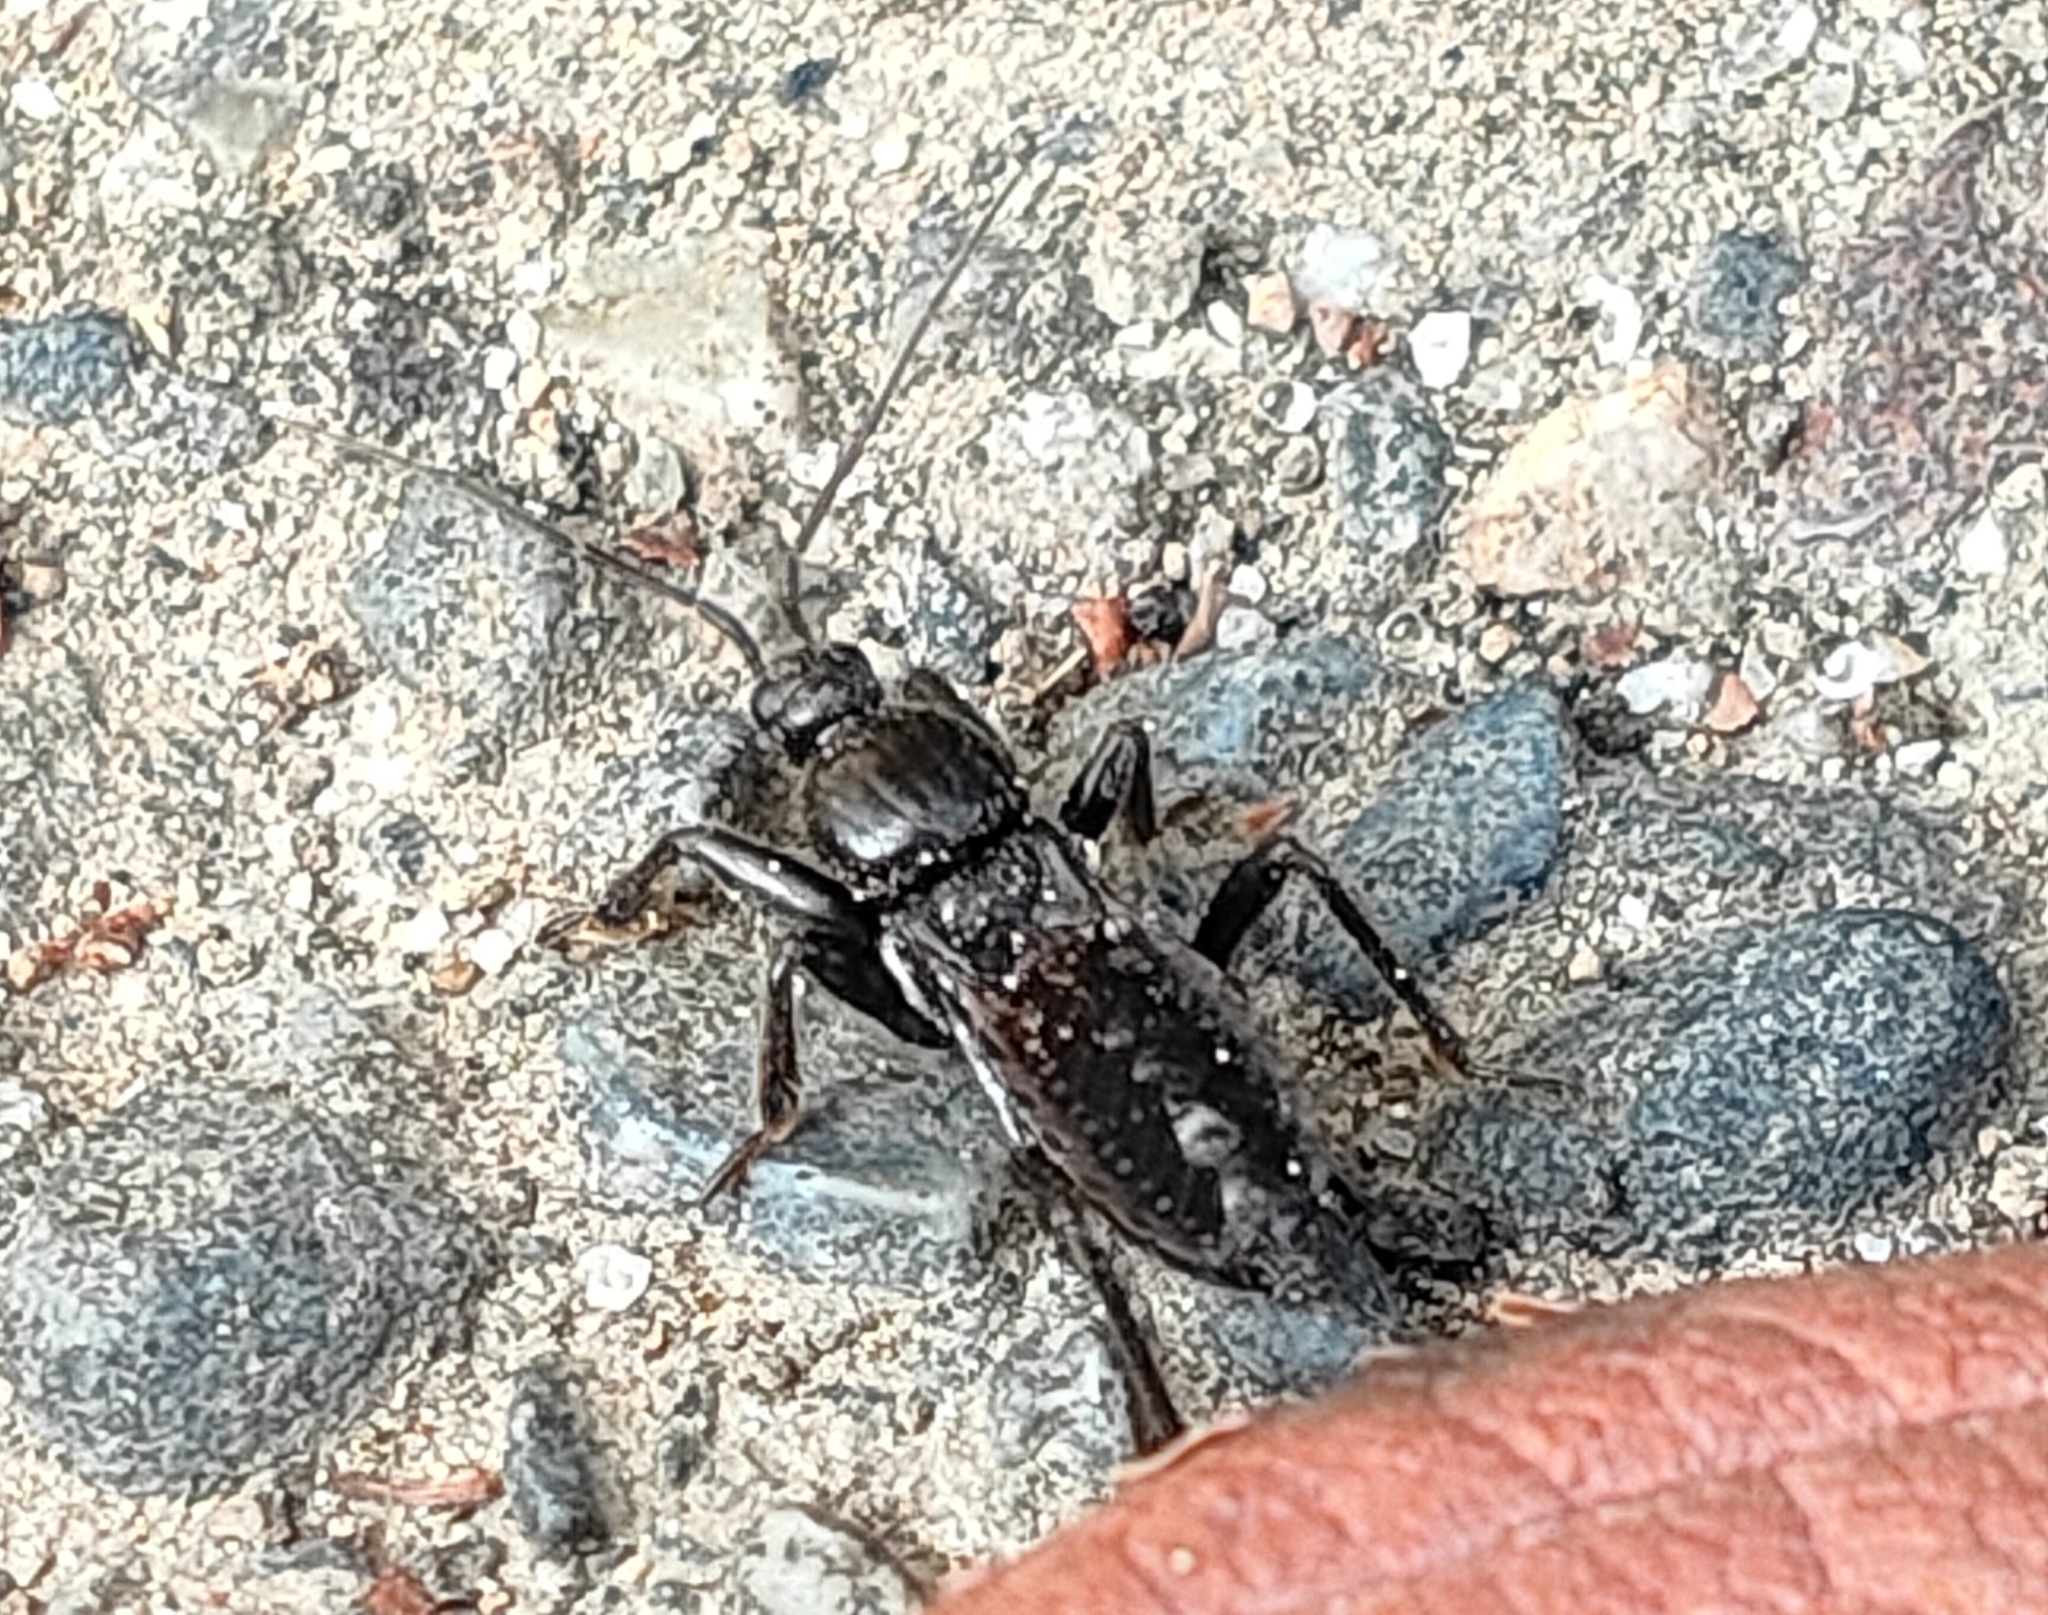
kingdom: Animalia
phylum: Arthropoda
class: Insecta
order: Hemiptera
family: Reduviidae
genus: Peirates
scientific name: Peirates turpis
